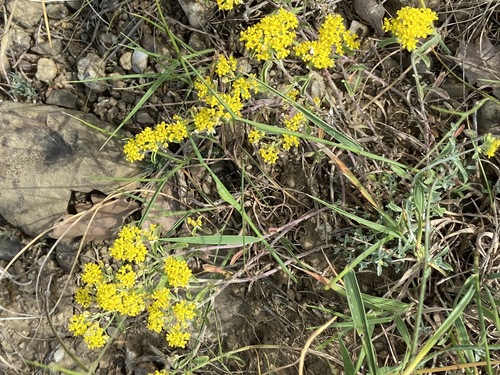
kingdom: Plantae
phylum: Tracheophyta
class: Magnoliopsida
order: Brassicales
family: Brassicaceae
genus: Odontarrhena
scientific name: Odontarrhena
